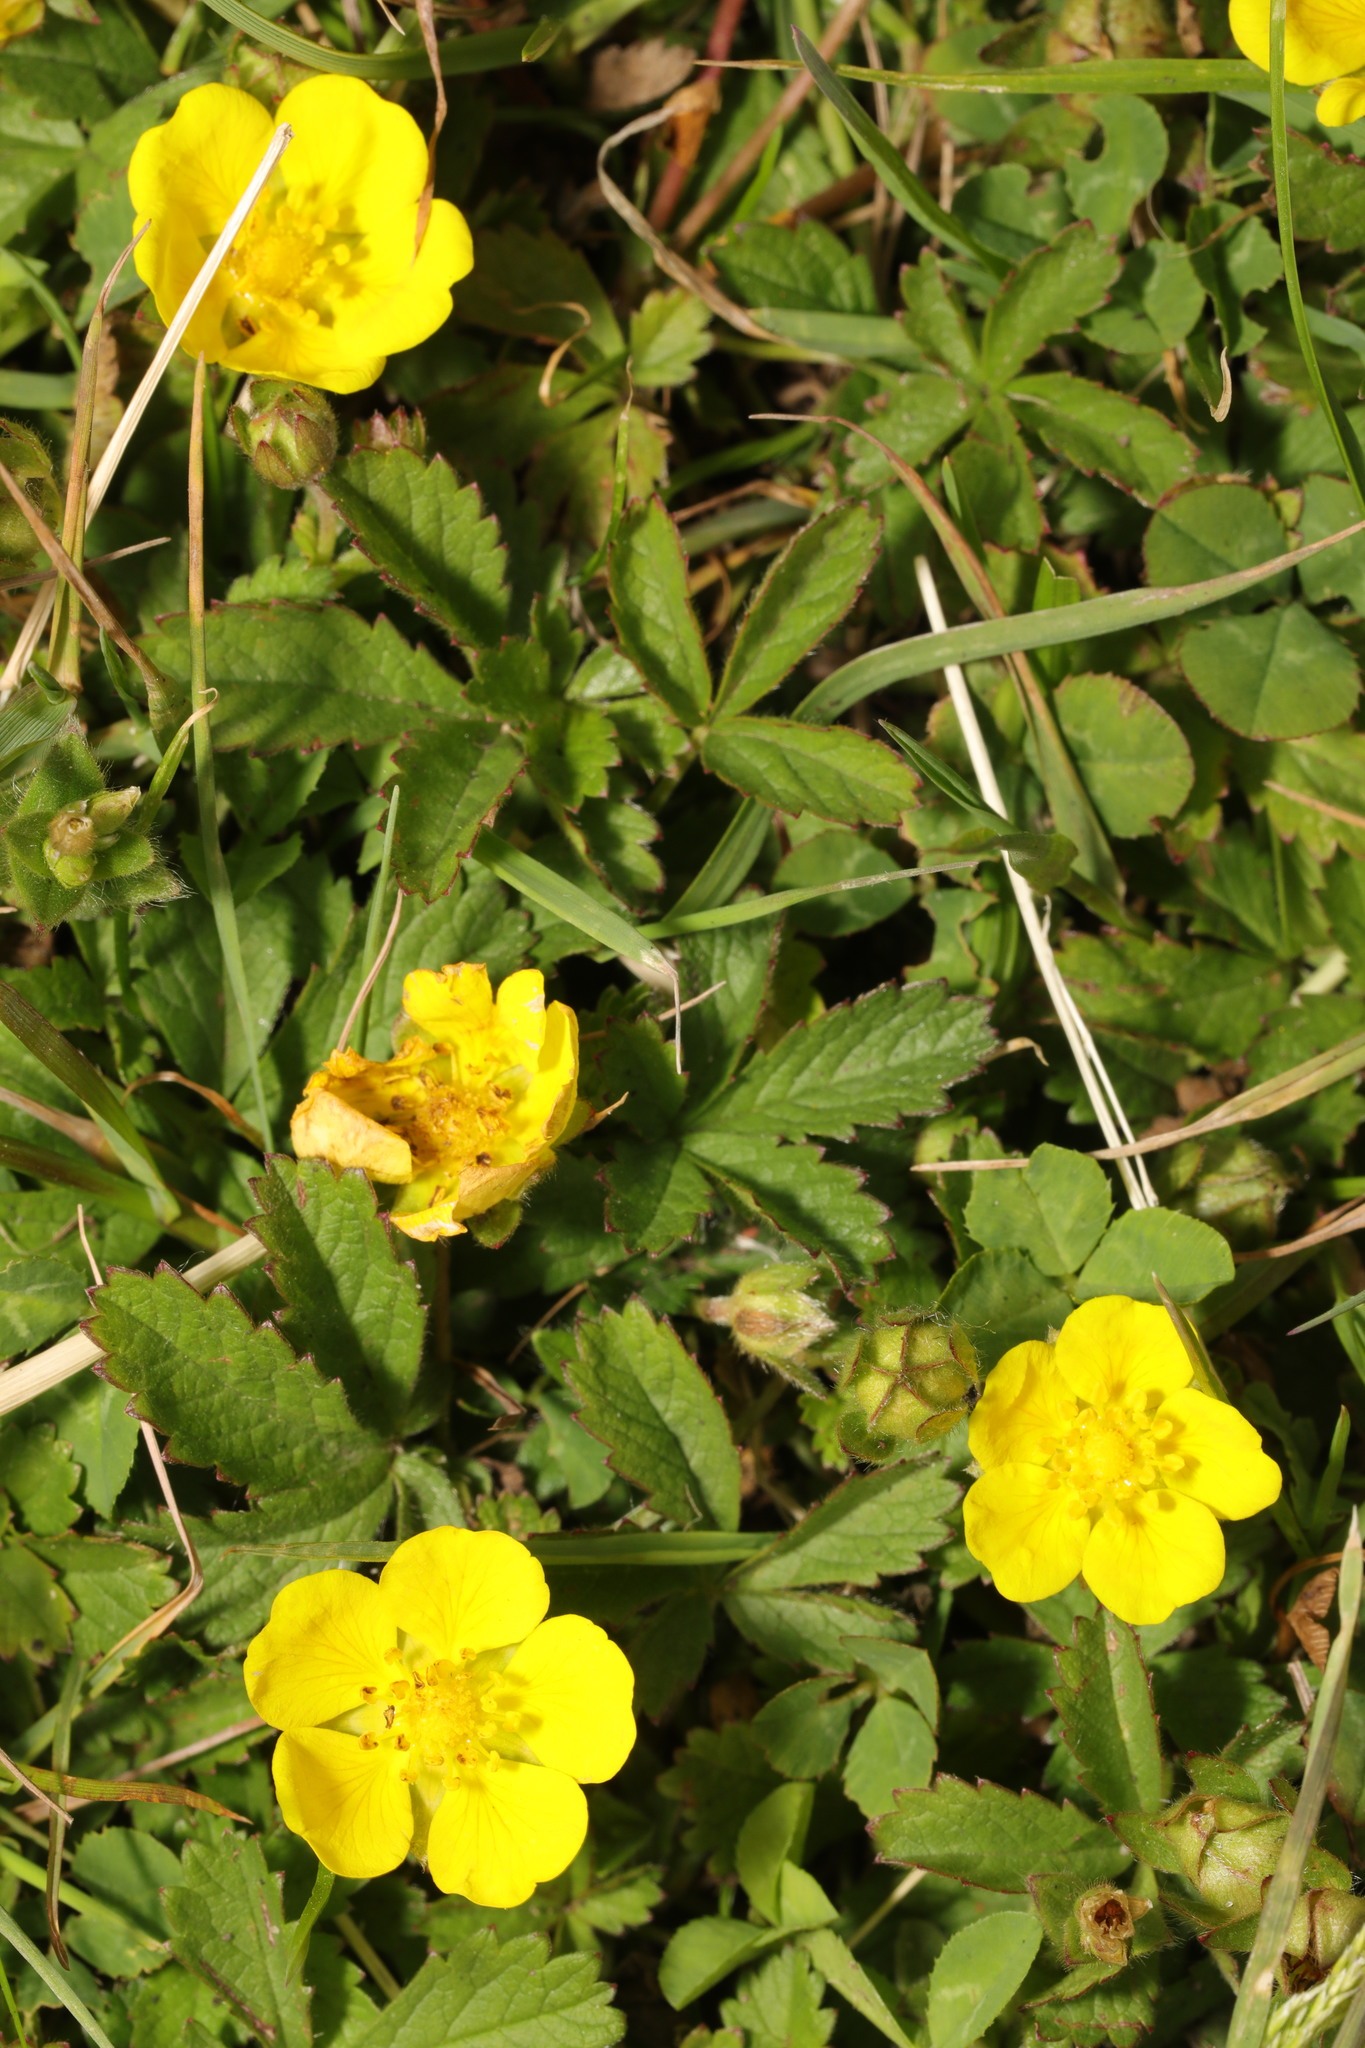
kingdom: Plantae
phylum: Tracheophyta
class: Magnoliopsida
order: Rosales
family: Rosaceae
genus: Potentilla
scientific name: Potentilla reptans
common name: Creeping cinquefoil
